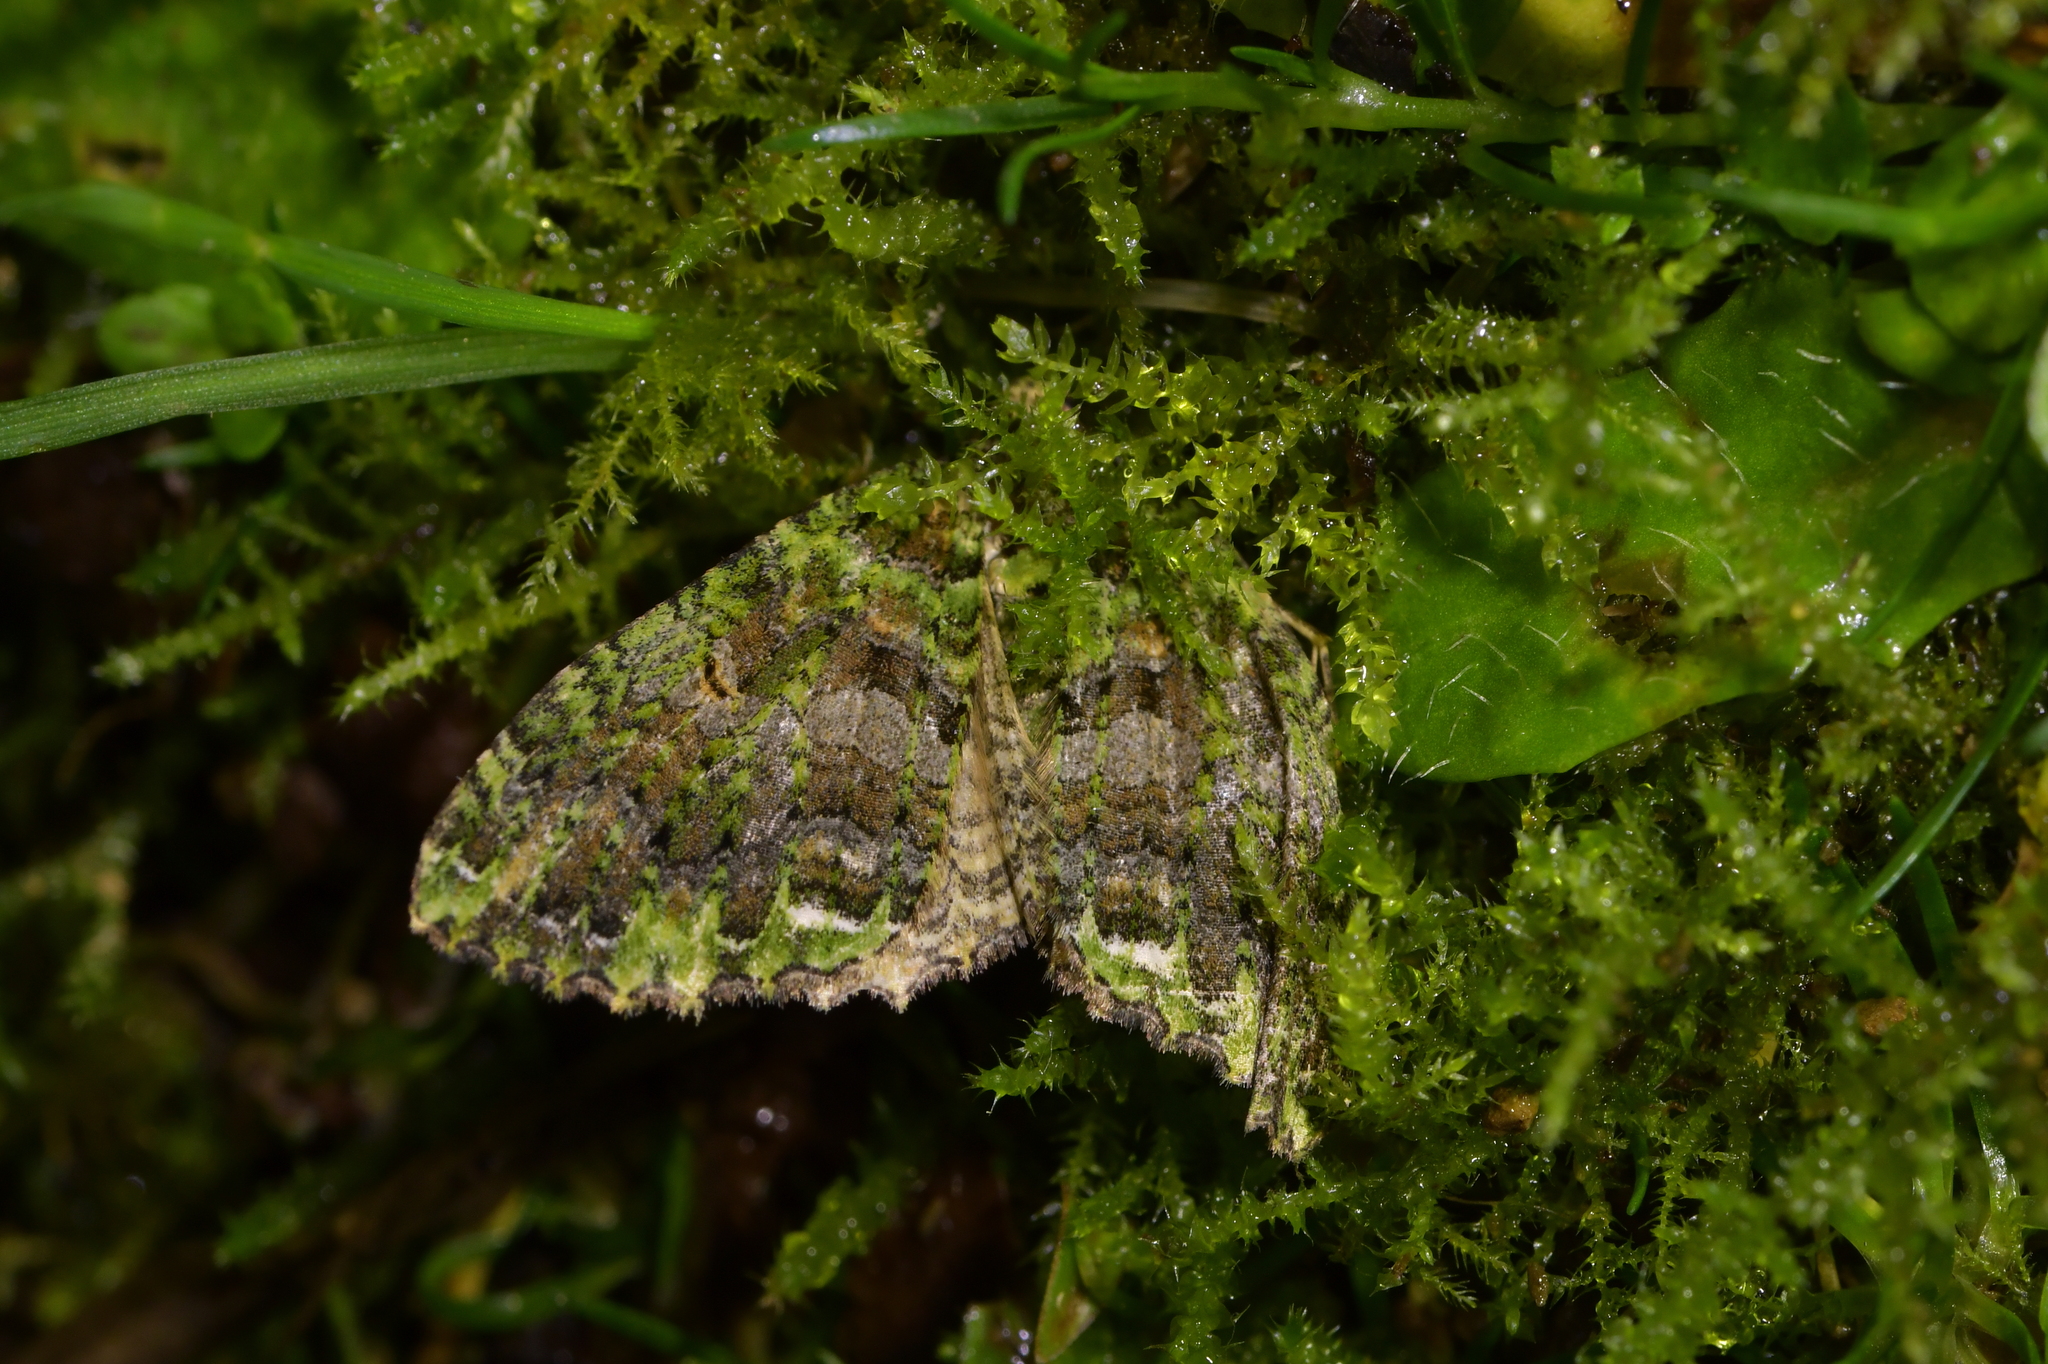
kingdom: Animalia
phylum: Arthropoda
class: Insecta
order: Lepidoptera
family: Geometridae
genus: Austrocidaria
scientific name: Austrocidaria similata
